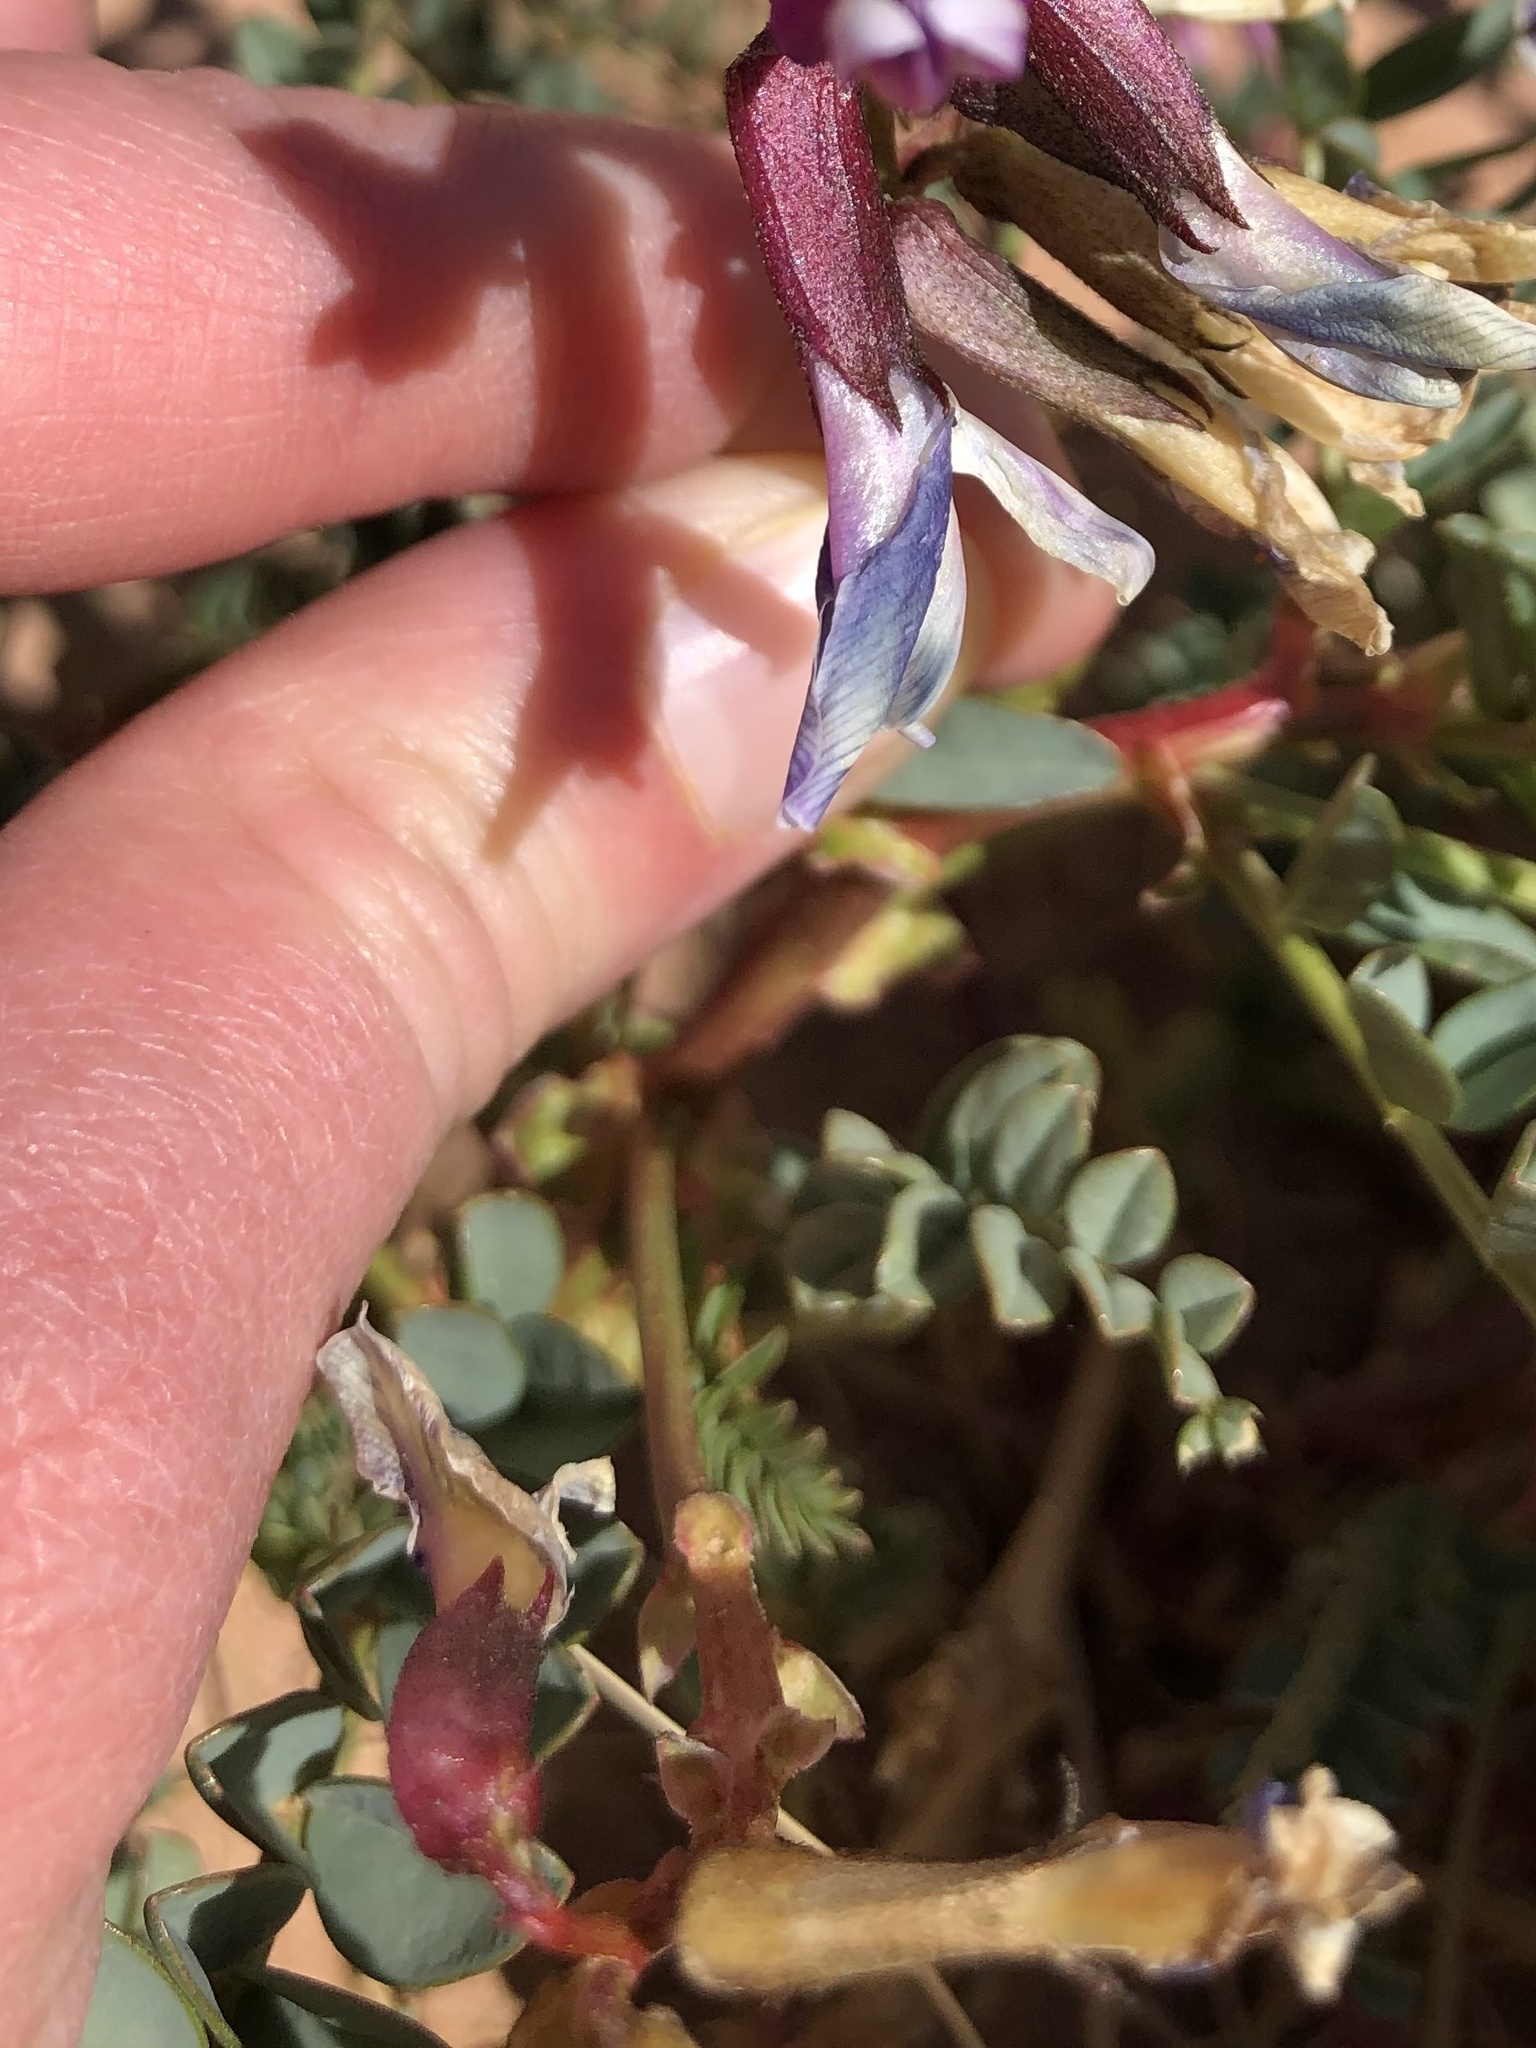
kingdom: Plantae
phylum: Tracheophyta
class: Magnoliopsida
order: Fabales
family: Fabaceae
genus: Astragalus
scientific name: Astragalus preussii
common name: Preuss's milk-vetch
